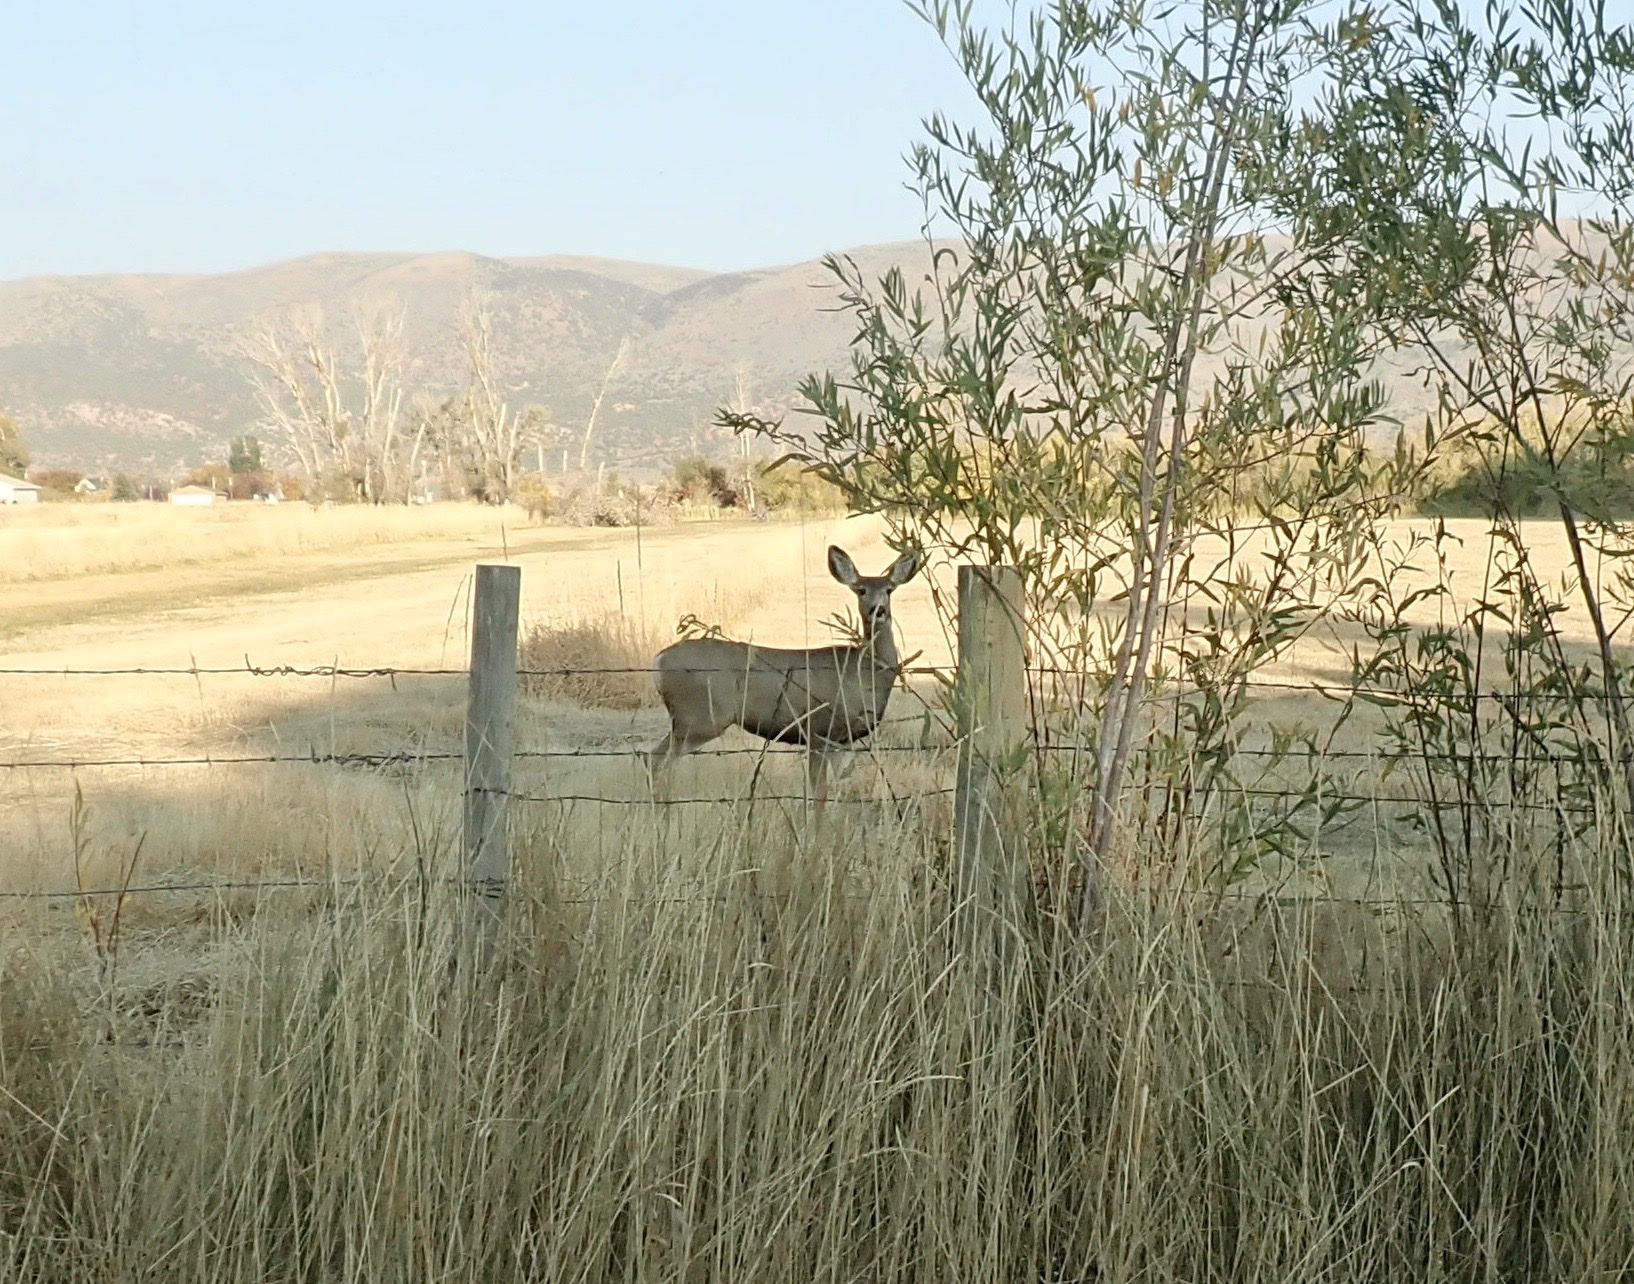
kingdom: Animalia
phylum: Chordata
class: Mammalia
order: Artiodactyla
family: Cervidae
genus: Odocoileus
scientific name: Odocoileus hemionus
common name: Mule deer
